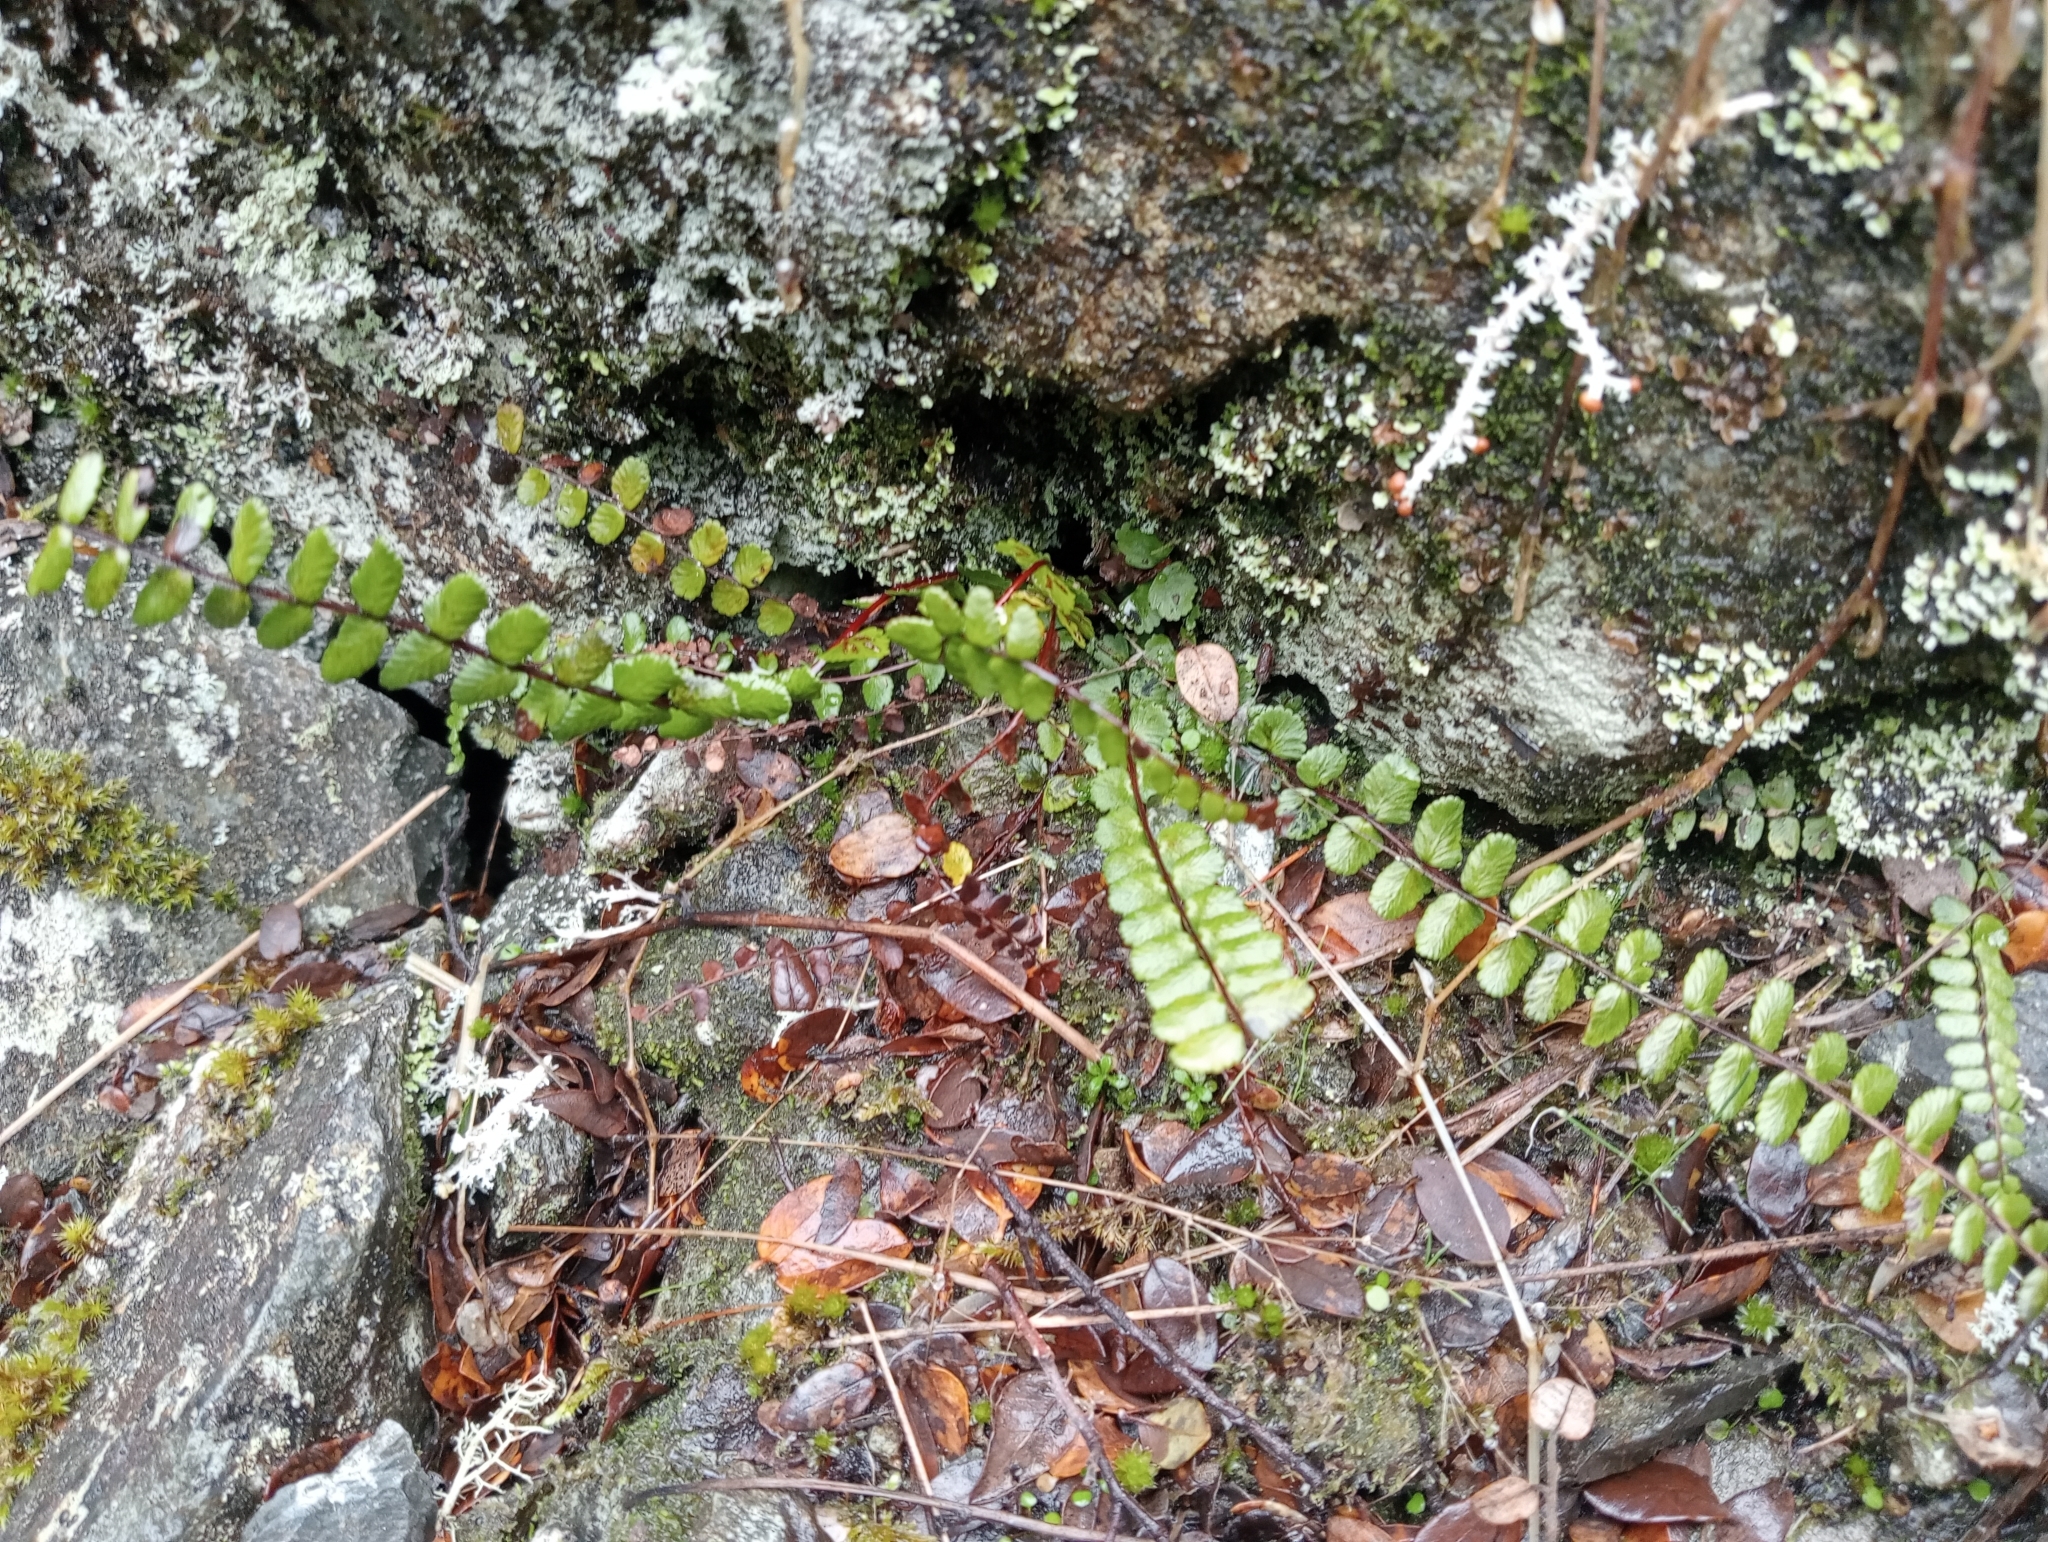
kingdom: Plantae
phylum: Tracheophyta
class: Polypodiopsida
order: Polypodiales
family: Aspleniaceae
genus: Asplenium
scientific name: Asplenium trichomanes
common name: Maidenhair spleenwort
